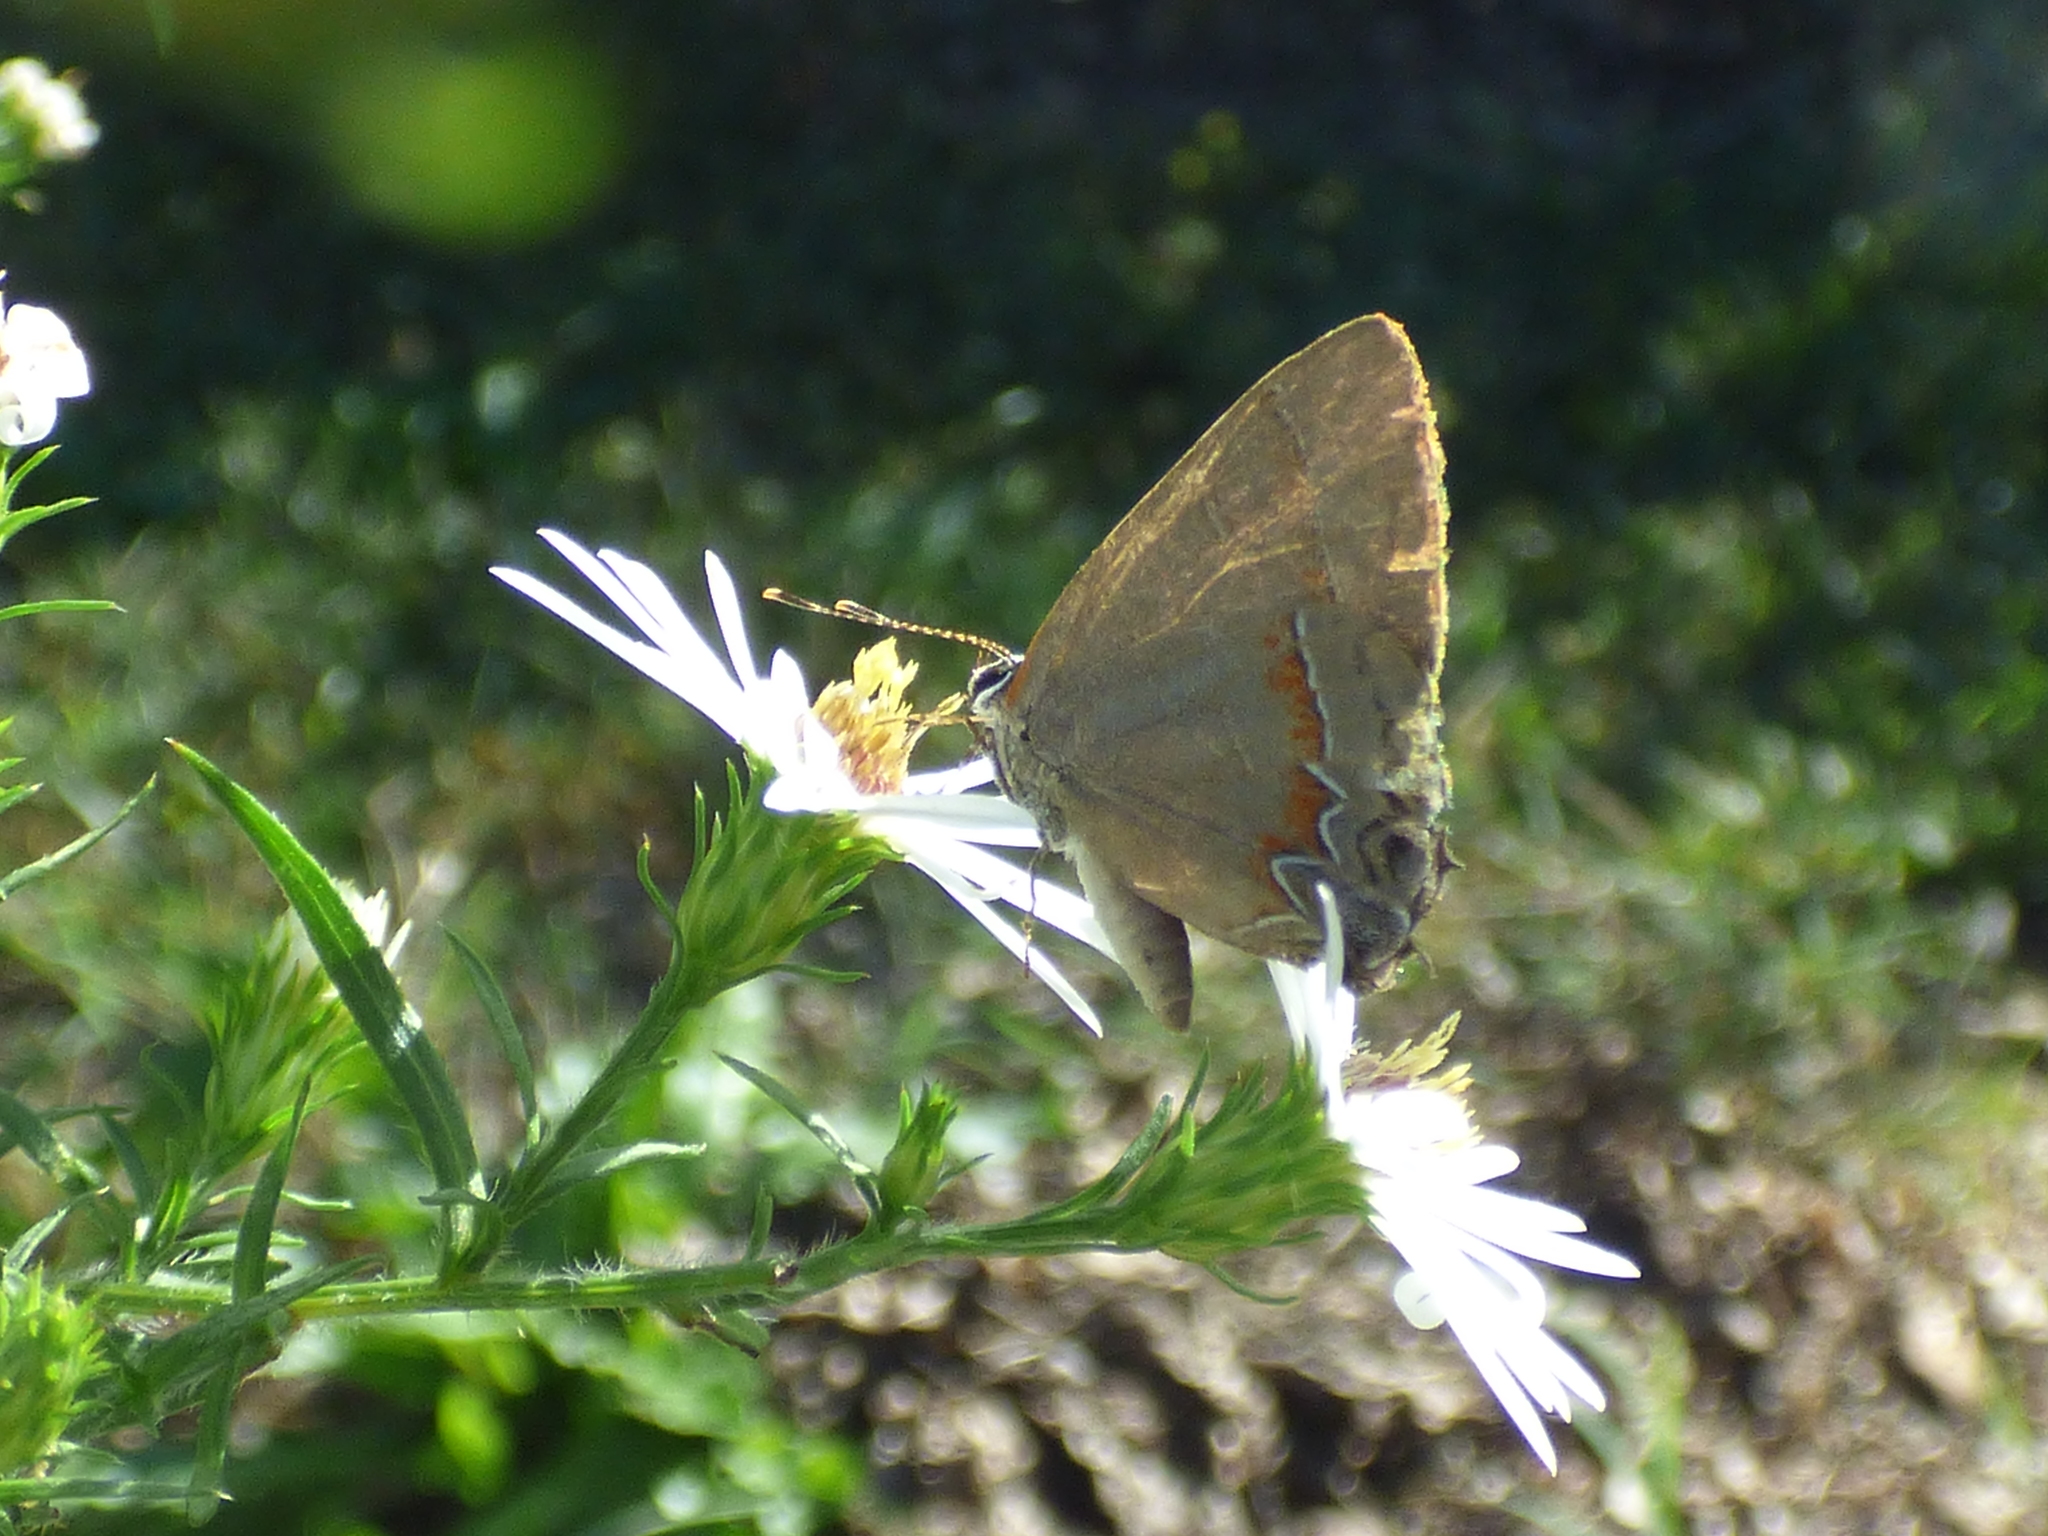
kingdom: Animalia
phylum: Arthropoda
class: Insecta
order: Lepidoptera
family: Lycaenidae
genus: Calycopis
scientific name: Calycopis cecrops
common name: Red-banded hairstreak
